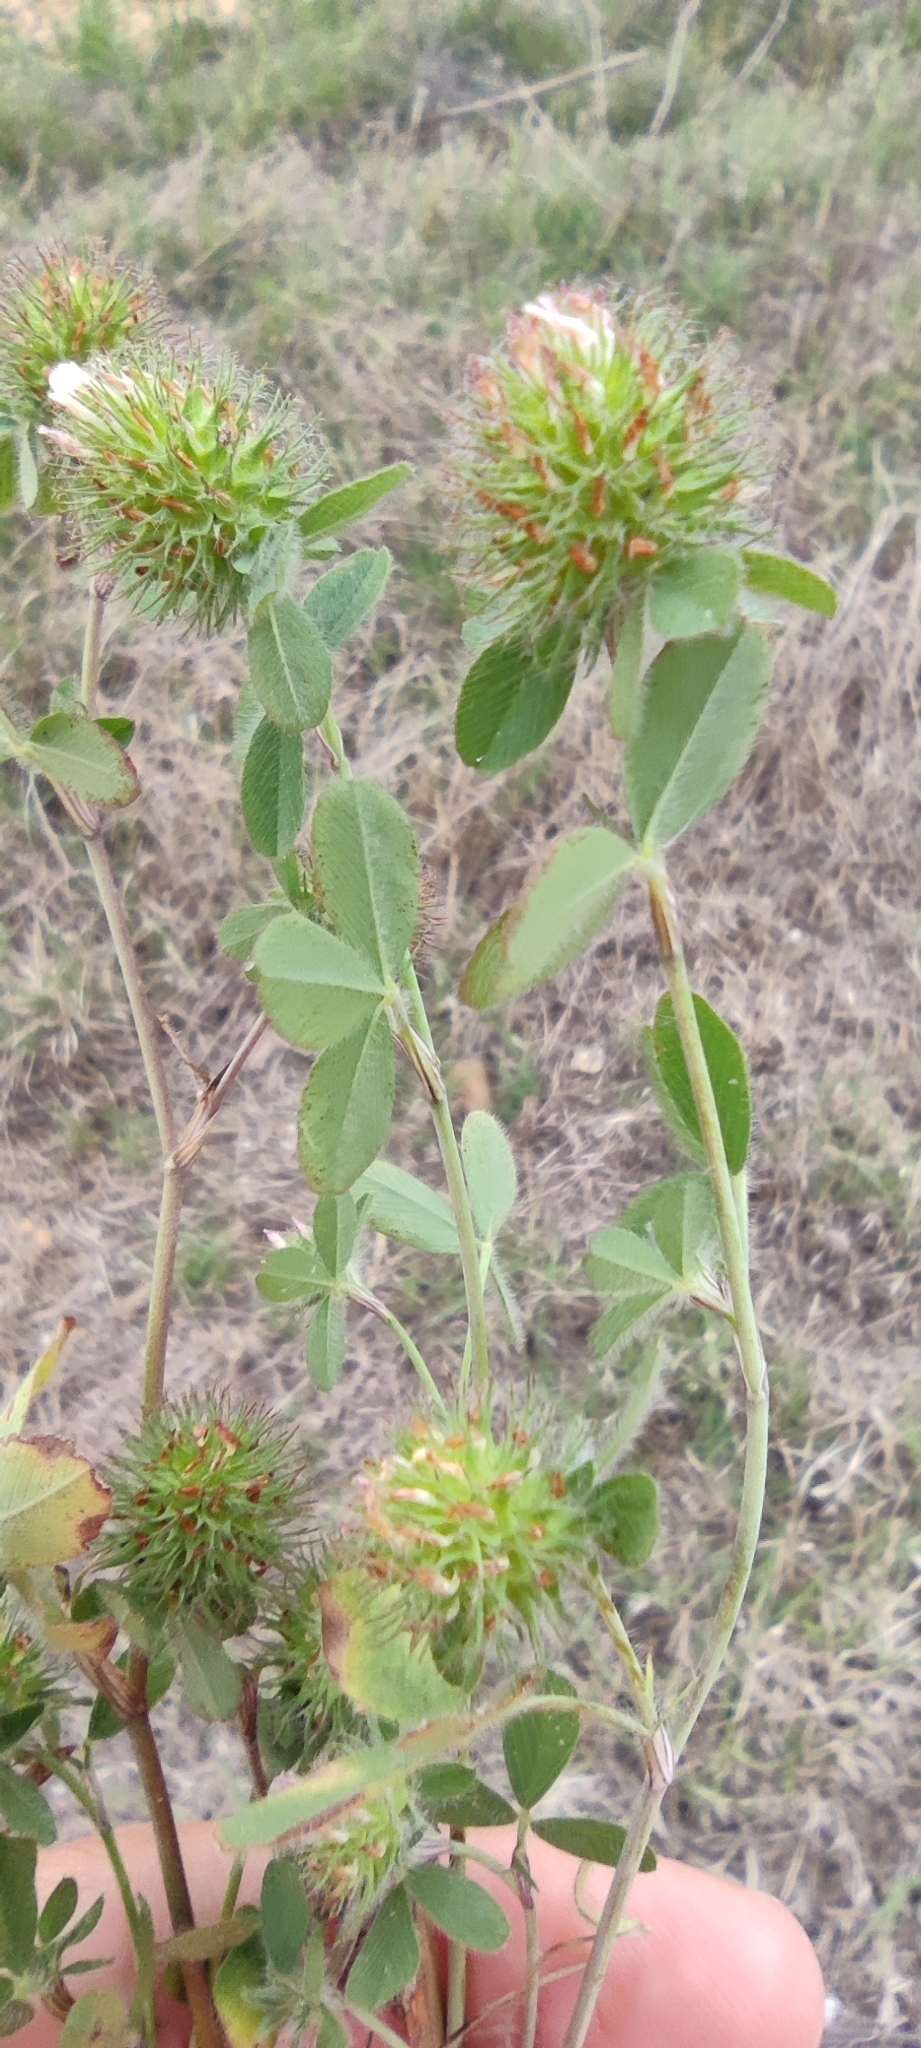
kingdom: Plantae
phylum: Tracheophyta
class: Magnoliopsida
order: Fabales
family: Fabaceae
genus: Trifolium
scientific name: Trifolium lappaceum
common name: Bur clover
